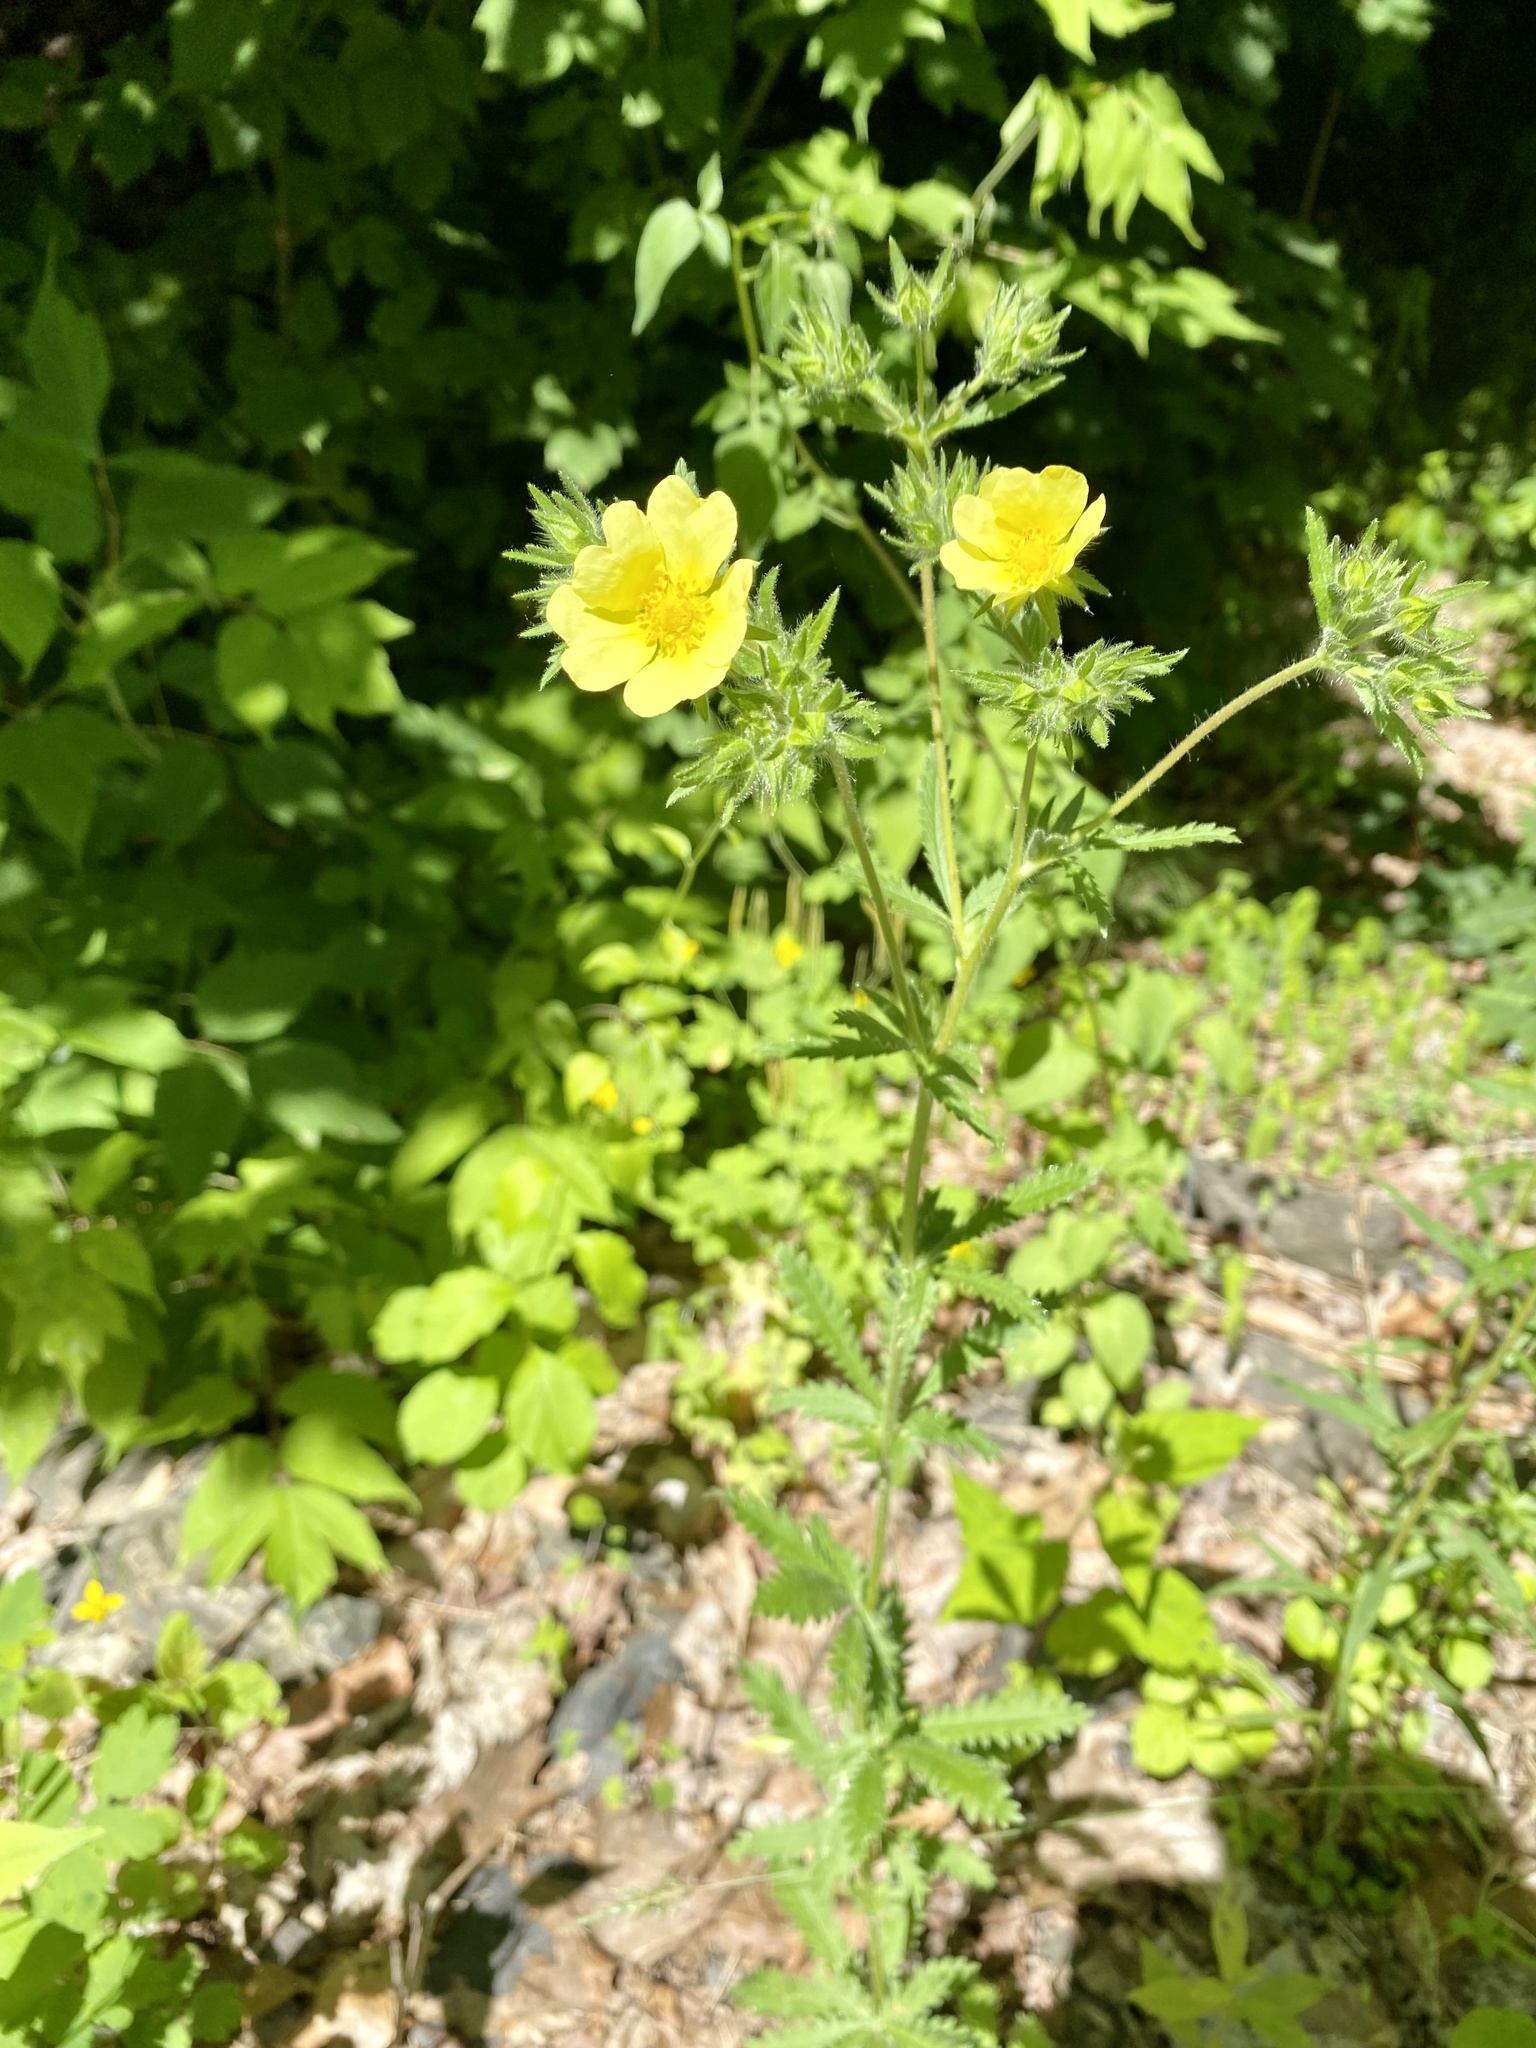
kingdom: Plantae
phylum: Tracheophyta
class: Magnoliopsida
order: Rosales
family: Rosaceae
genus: Potentilla
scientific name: Potentilla recta
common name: Sulphur cinquefoil
